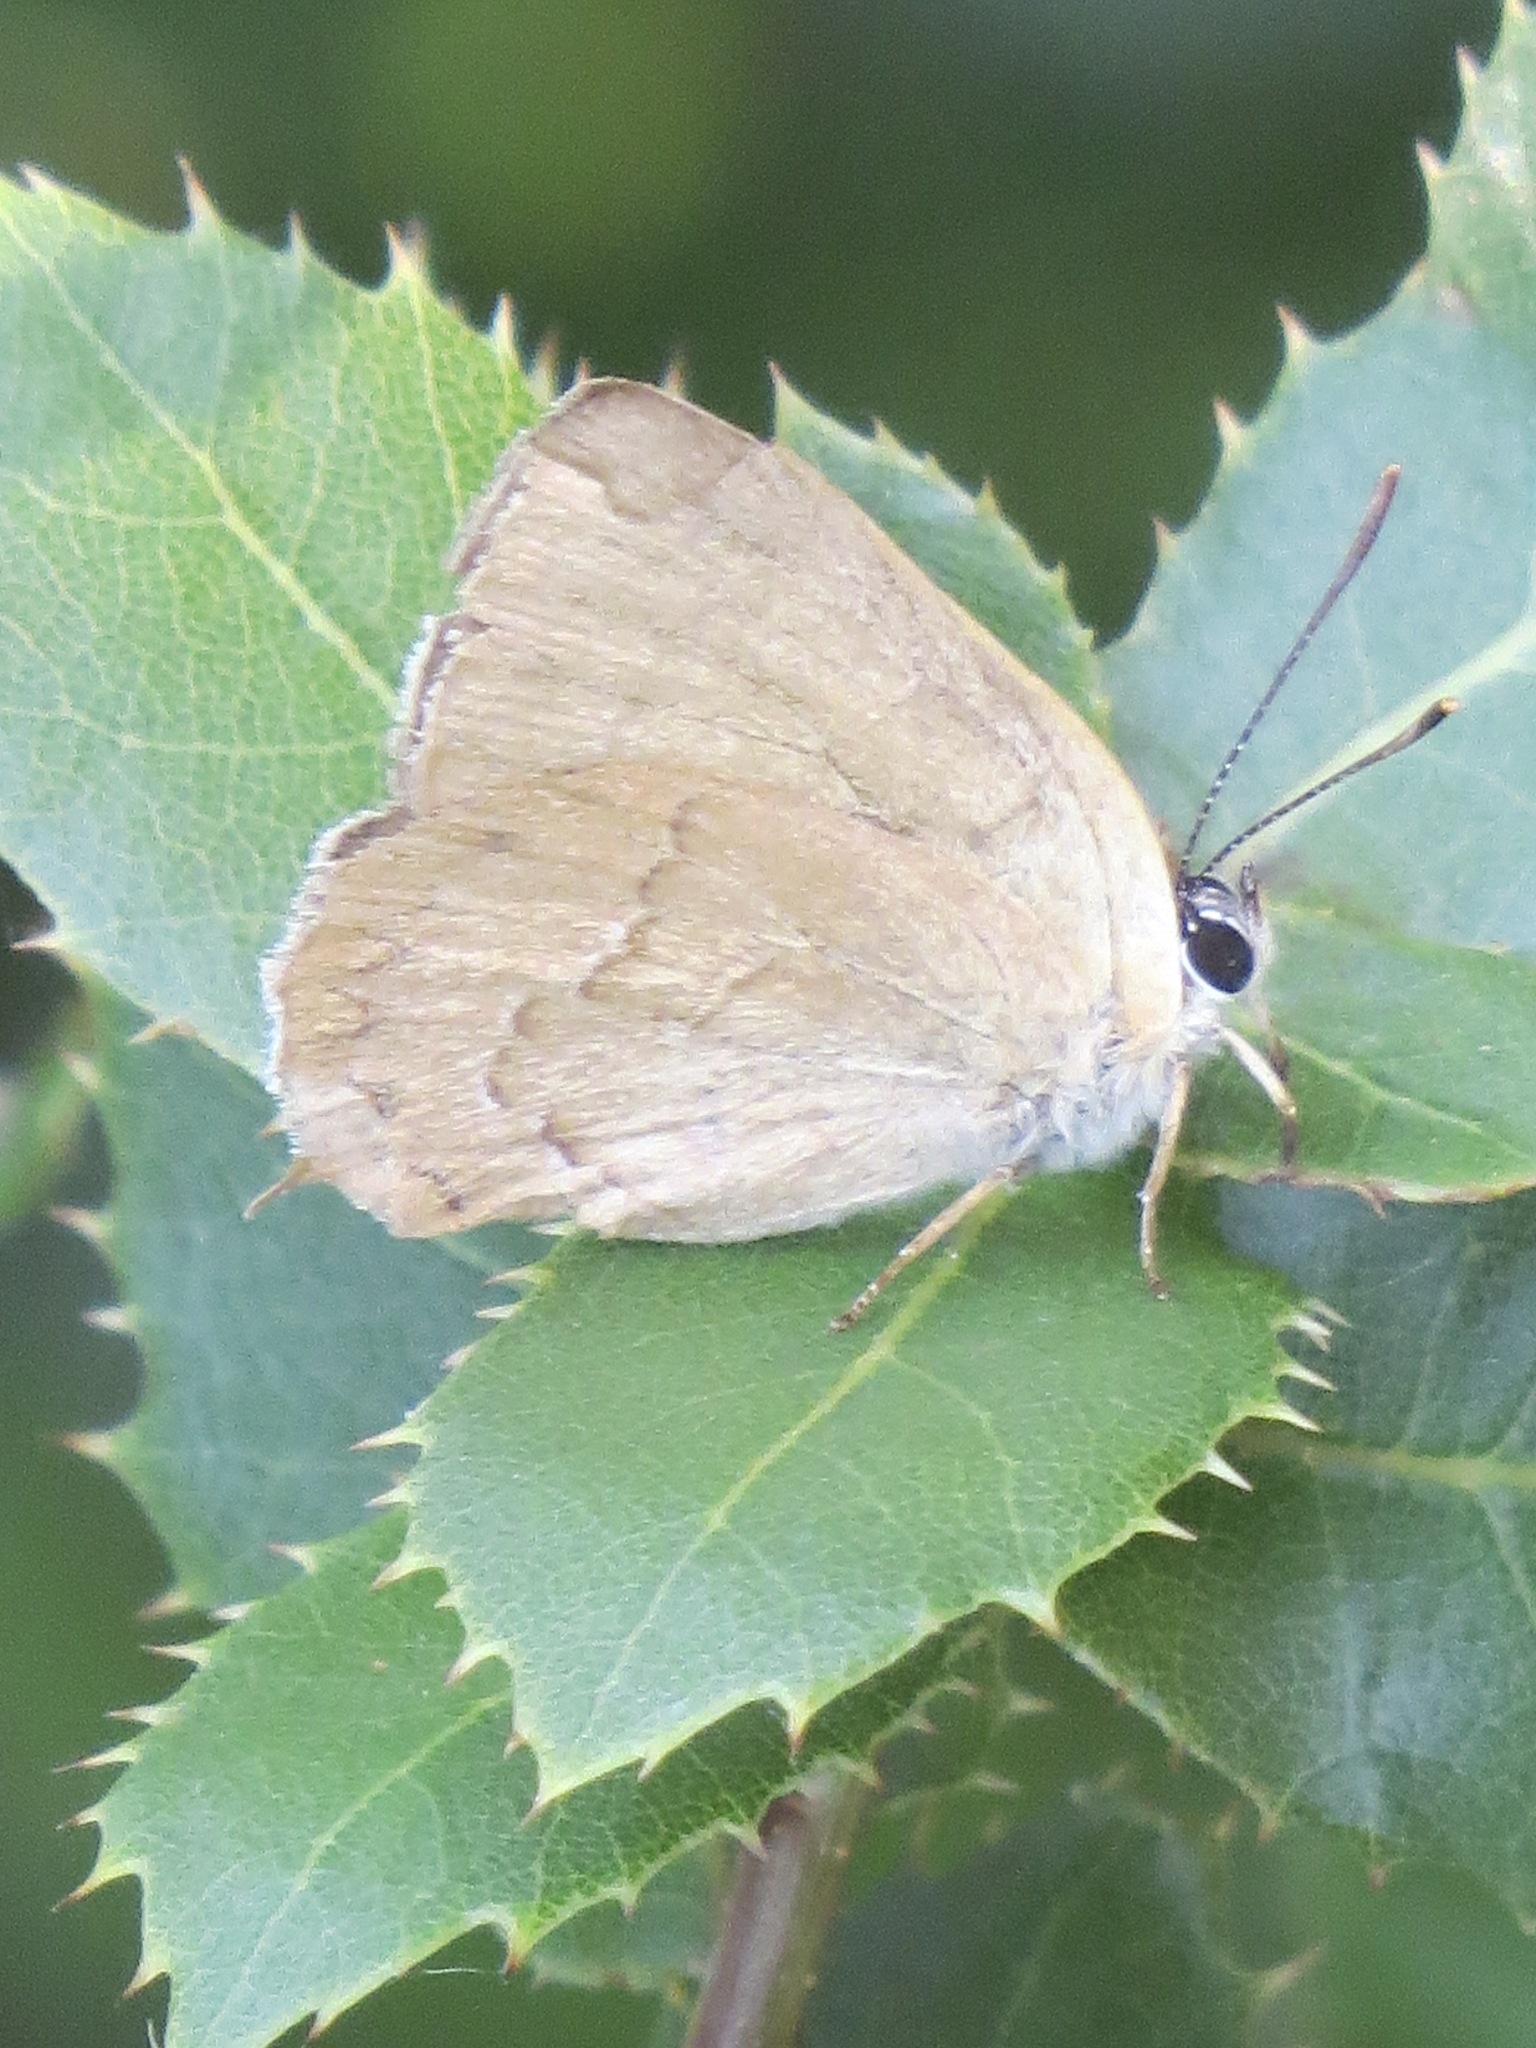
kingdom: Animalia
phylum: Arthropoda
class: Insecta
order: Lepidoptera
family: Lycaenidae
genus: Habrodais
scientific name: Habrodais grunus
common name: Golden hairstreak
